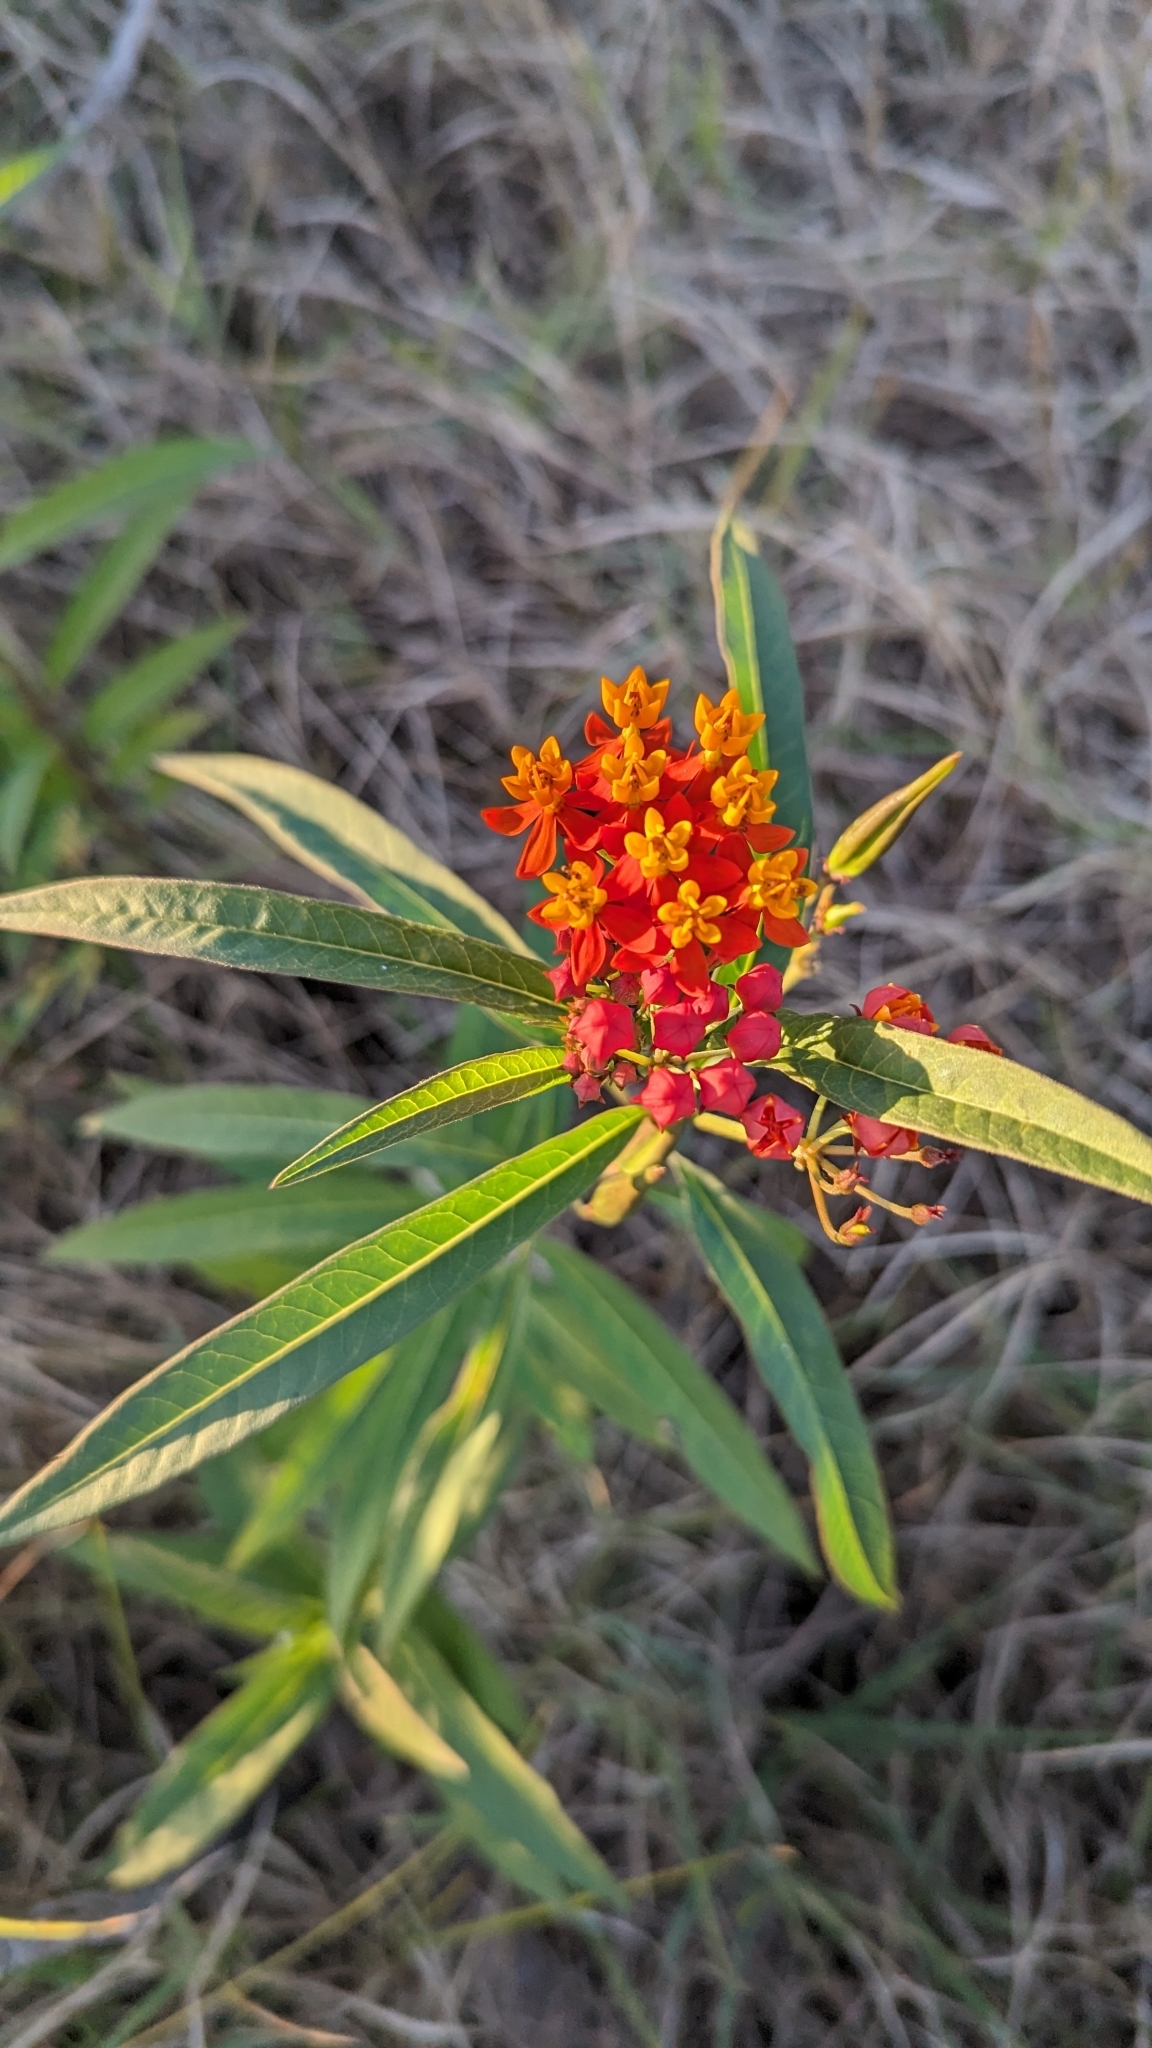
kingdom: Plantae
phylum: Tracheophyta
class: Magnoliopsida
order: Gentianales
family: Apocynaceae
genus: Asclepias
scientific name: Asclepias curassavica
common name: Bloodflower
